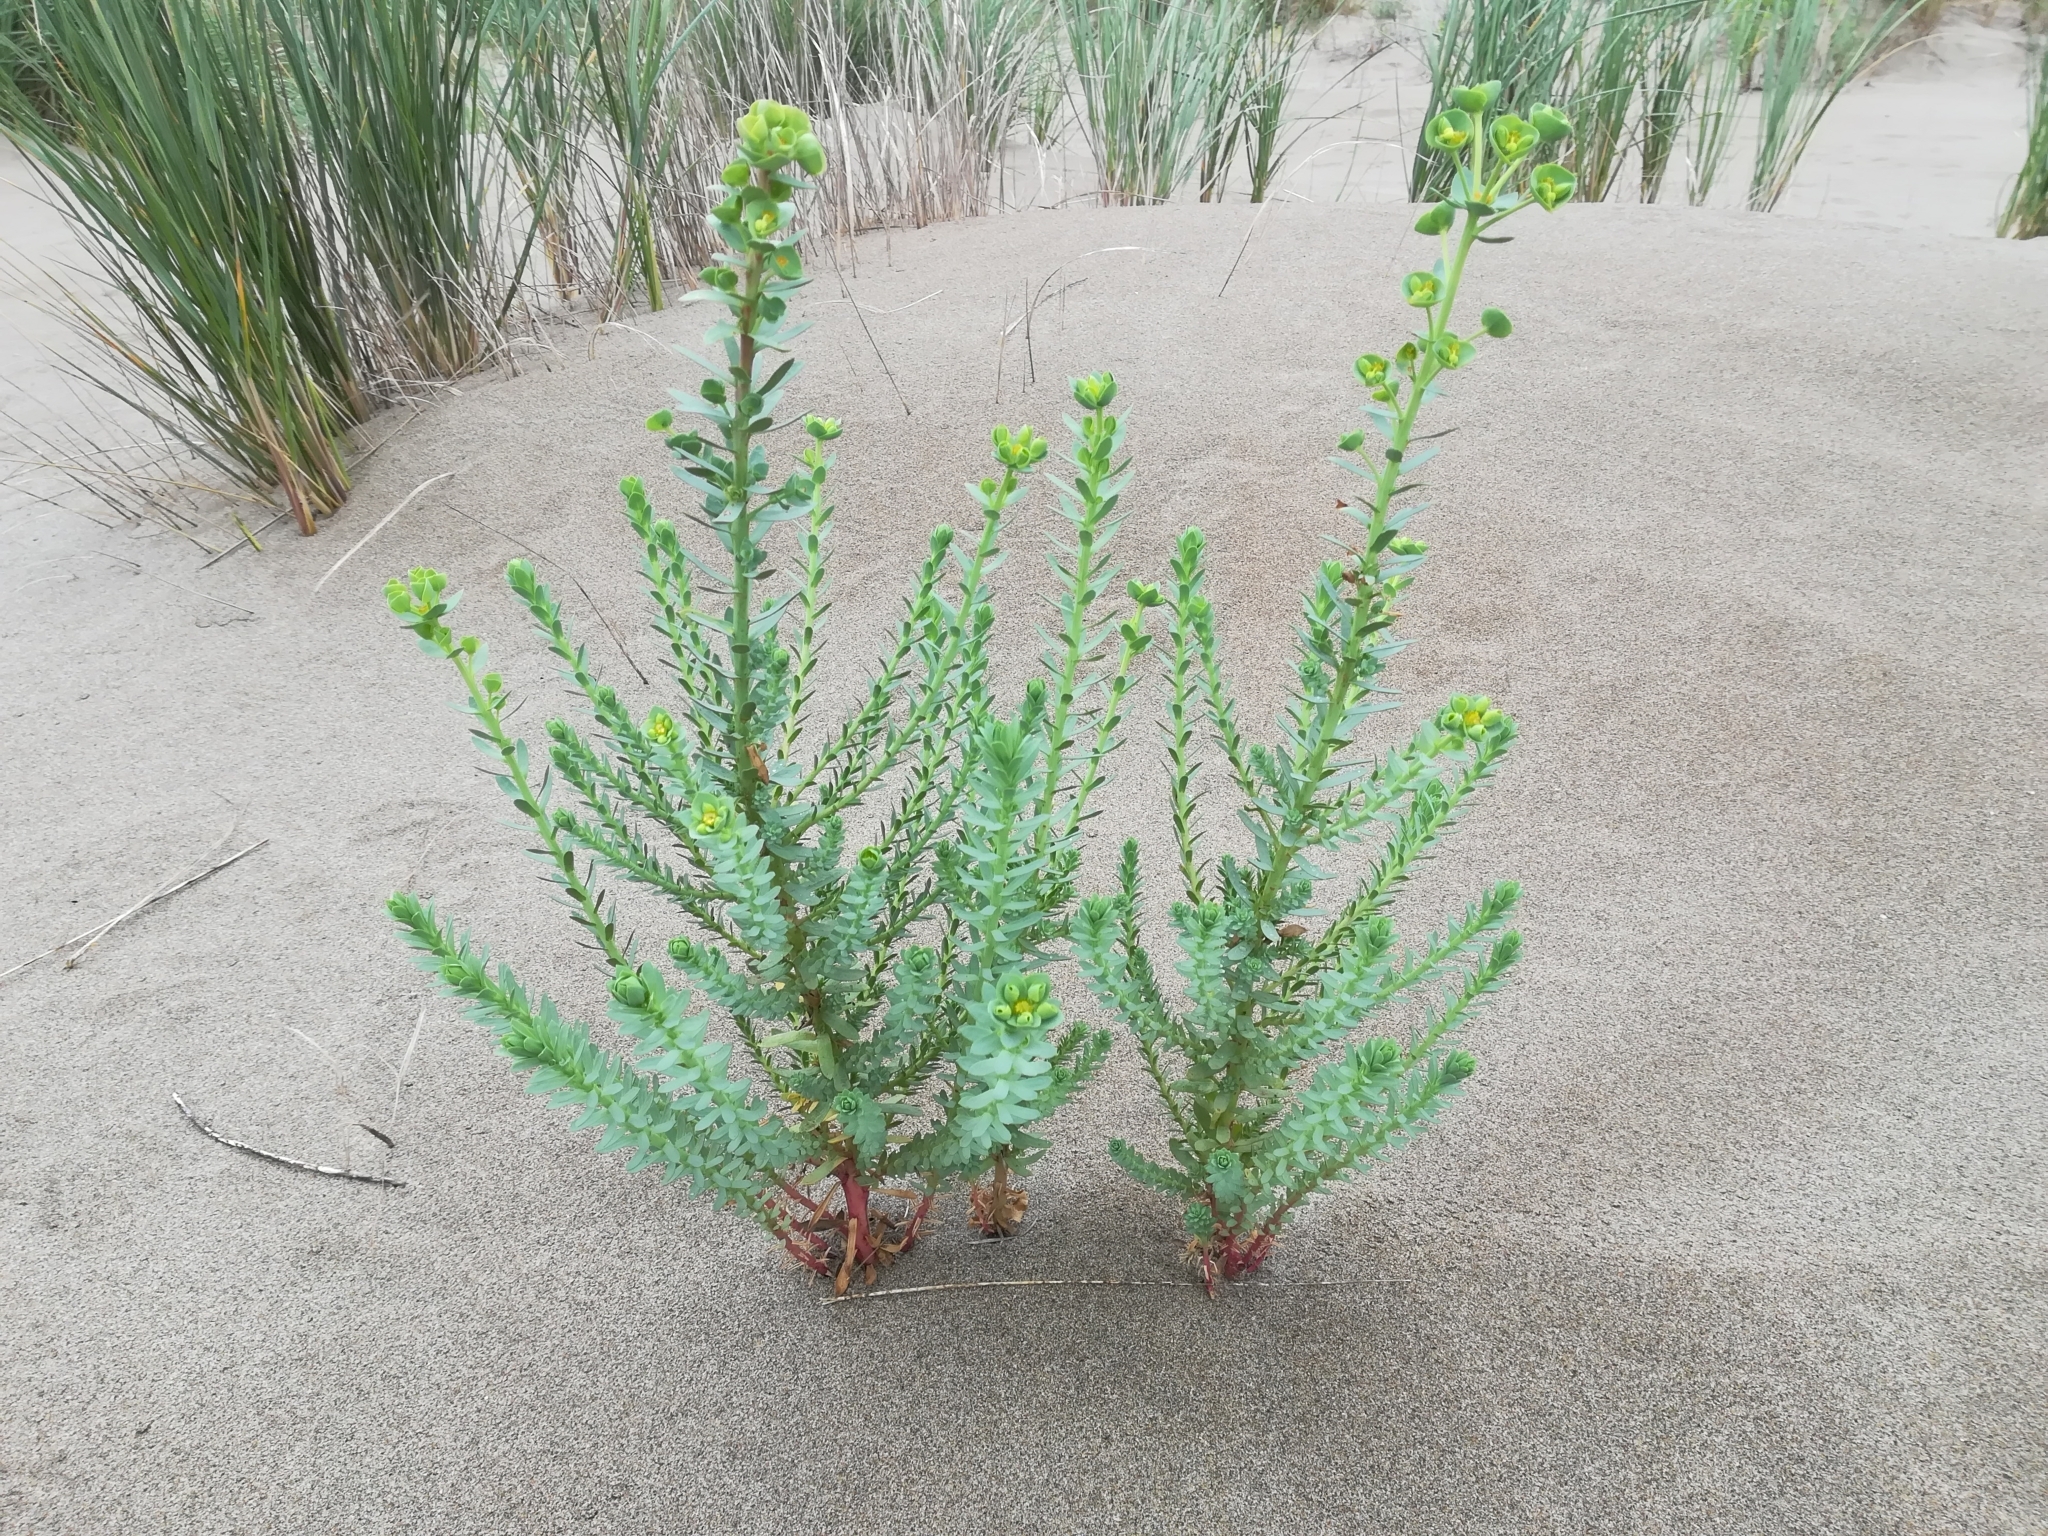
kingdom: Plantae
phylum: Tracheophyta
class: Magnoliopsida
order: Malpighiales
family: Euphorbiaceae
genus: Euphorbia
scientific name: Euphorbia paralias
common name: Sea spurge
